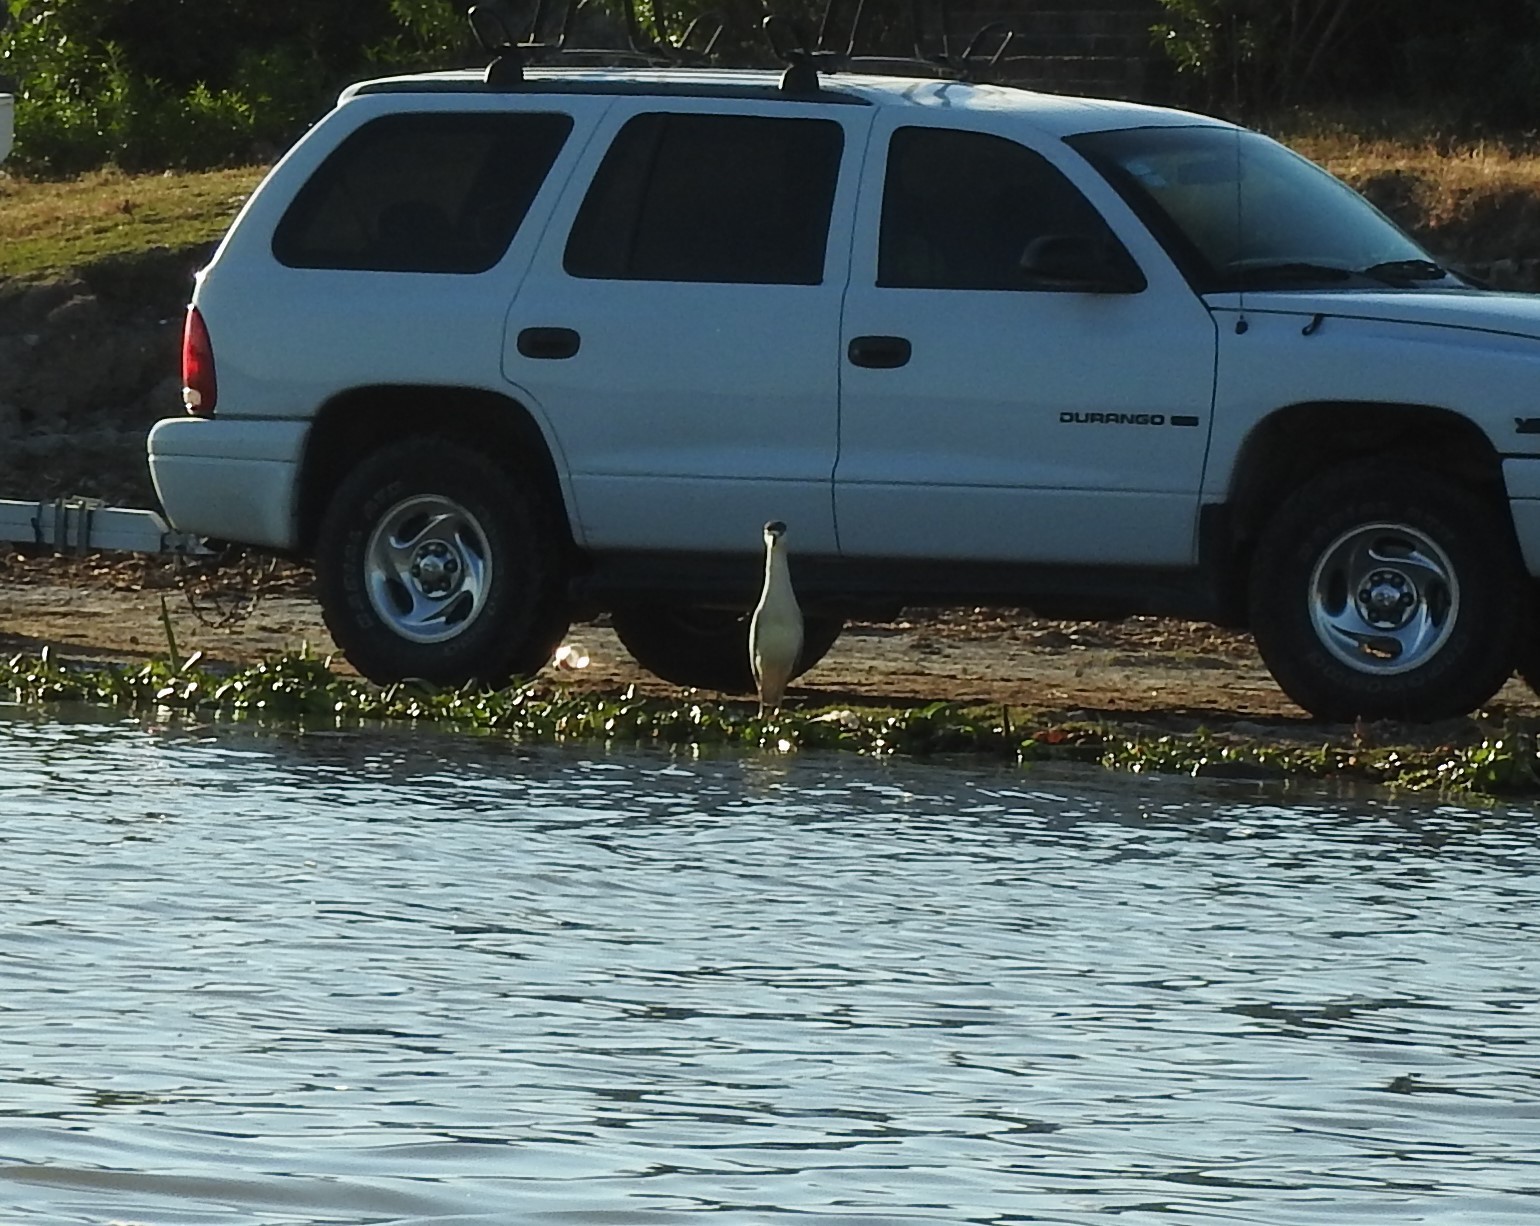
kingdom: Animalia
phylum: Chordata
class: Aves
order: Pelecaniformes
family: Ardeidae
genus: Nycticorax
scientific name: Nycticorax nycticorax
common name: Black-crowned night heron
